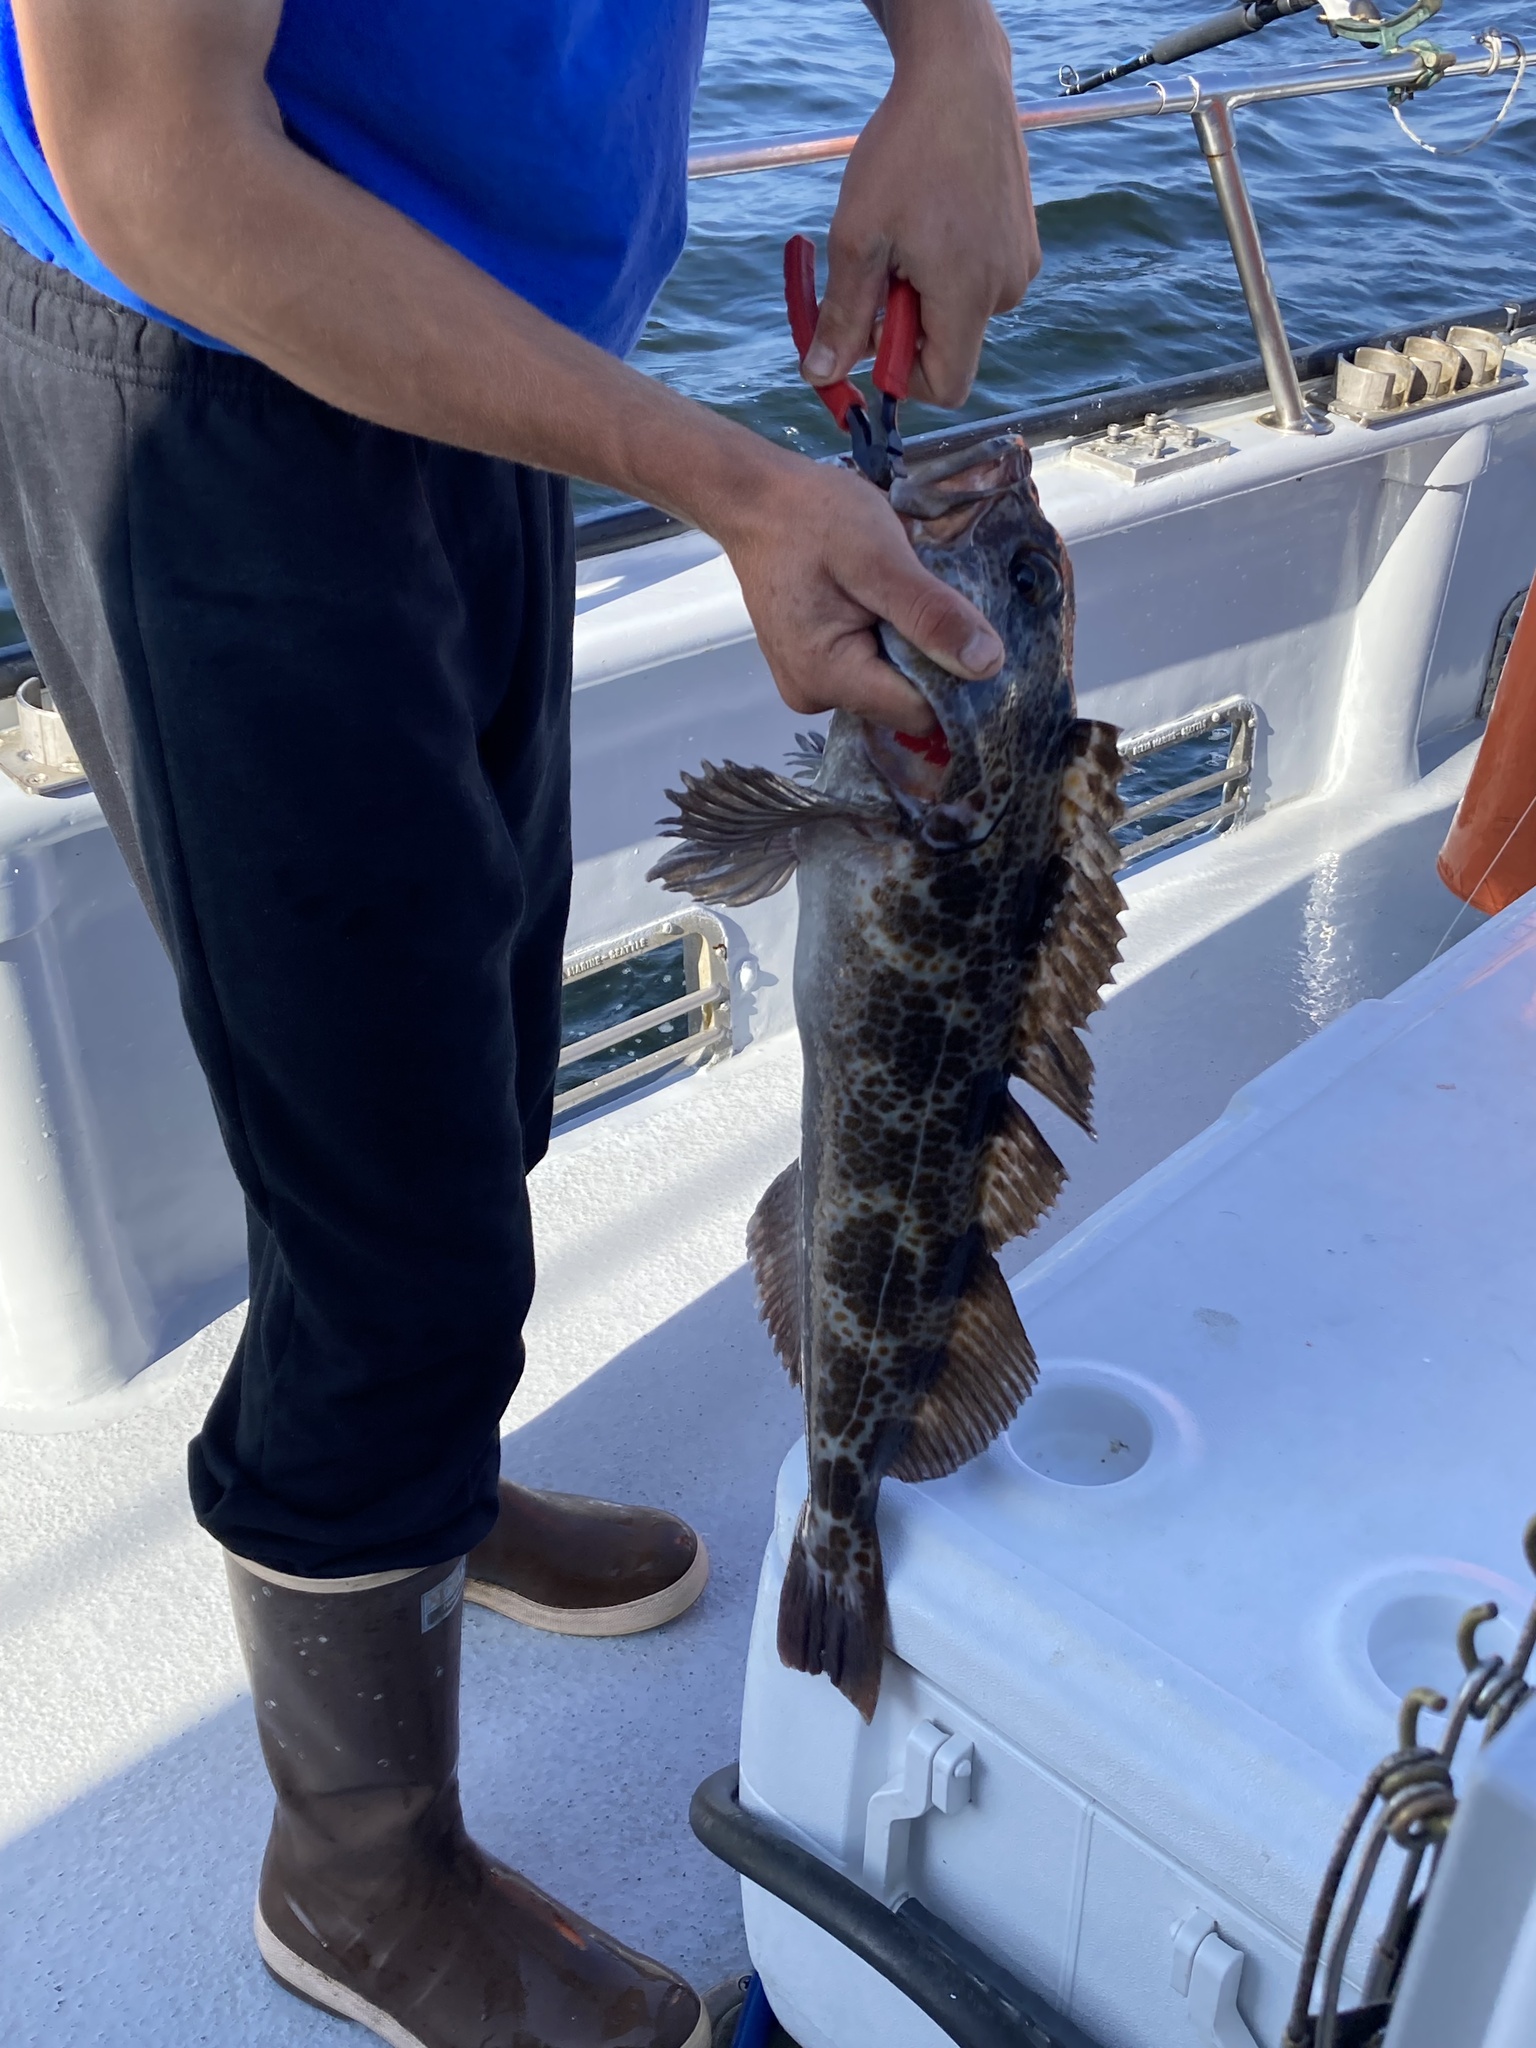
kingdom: Animalia
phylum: Chordata
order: Scorpaeniformes
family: Hexagrammidae
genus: Ophiodon
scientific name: Ophiodon elongatus
